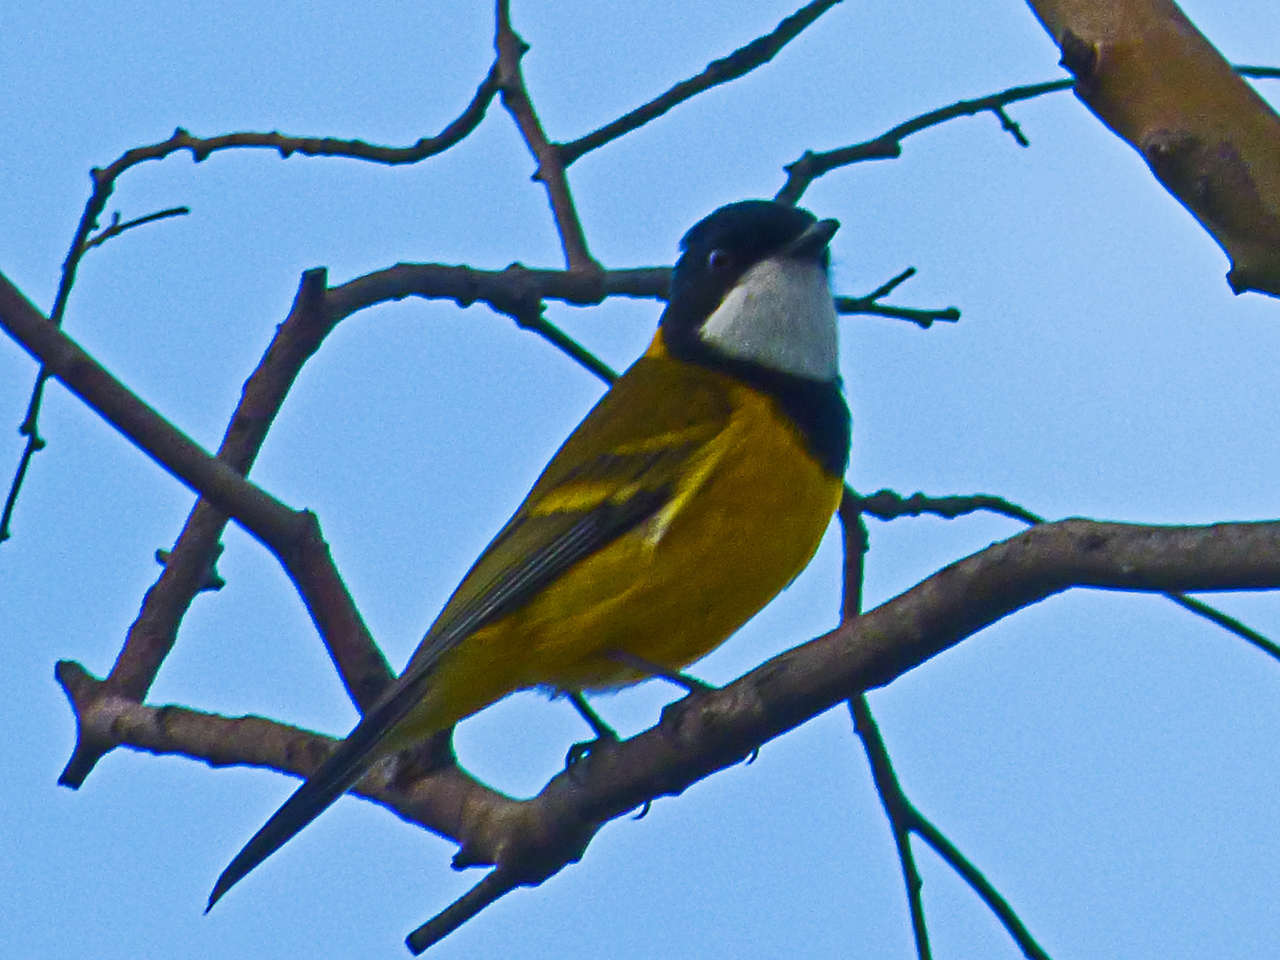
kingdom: Animalia
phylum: Chordata
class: Aves
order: Passeriformes
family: Pachycephalidae
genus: Pachycephala
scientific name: Pachycephala pectoralis
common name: Australian golden whistler
